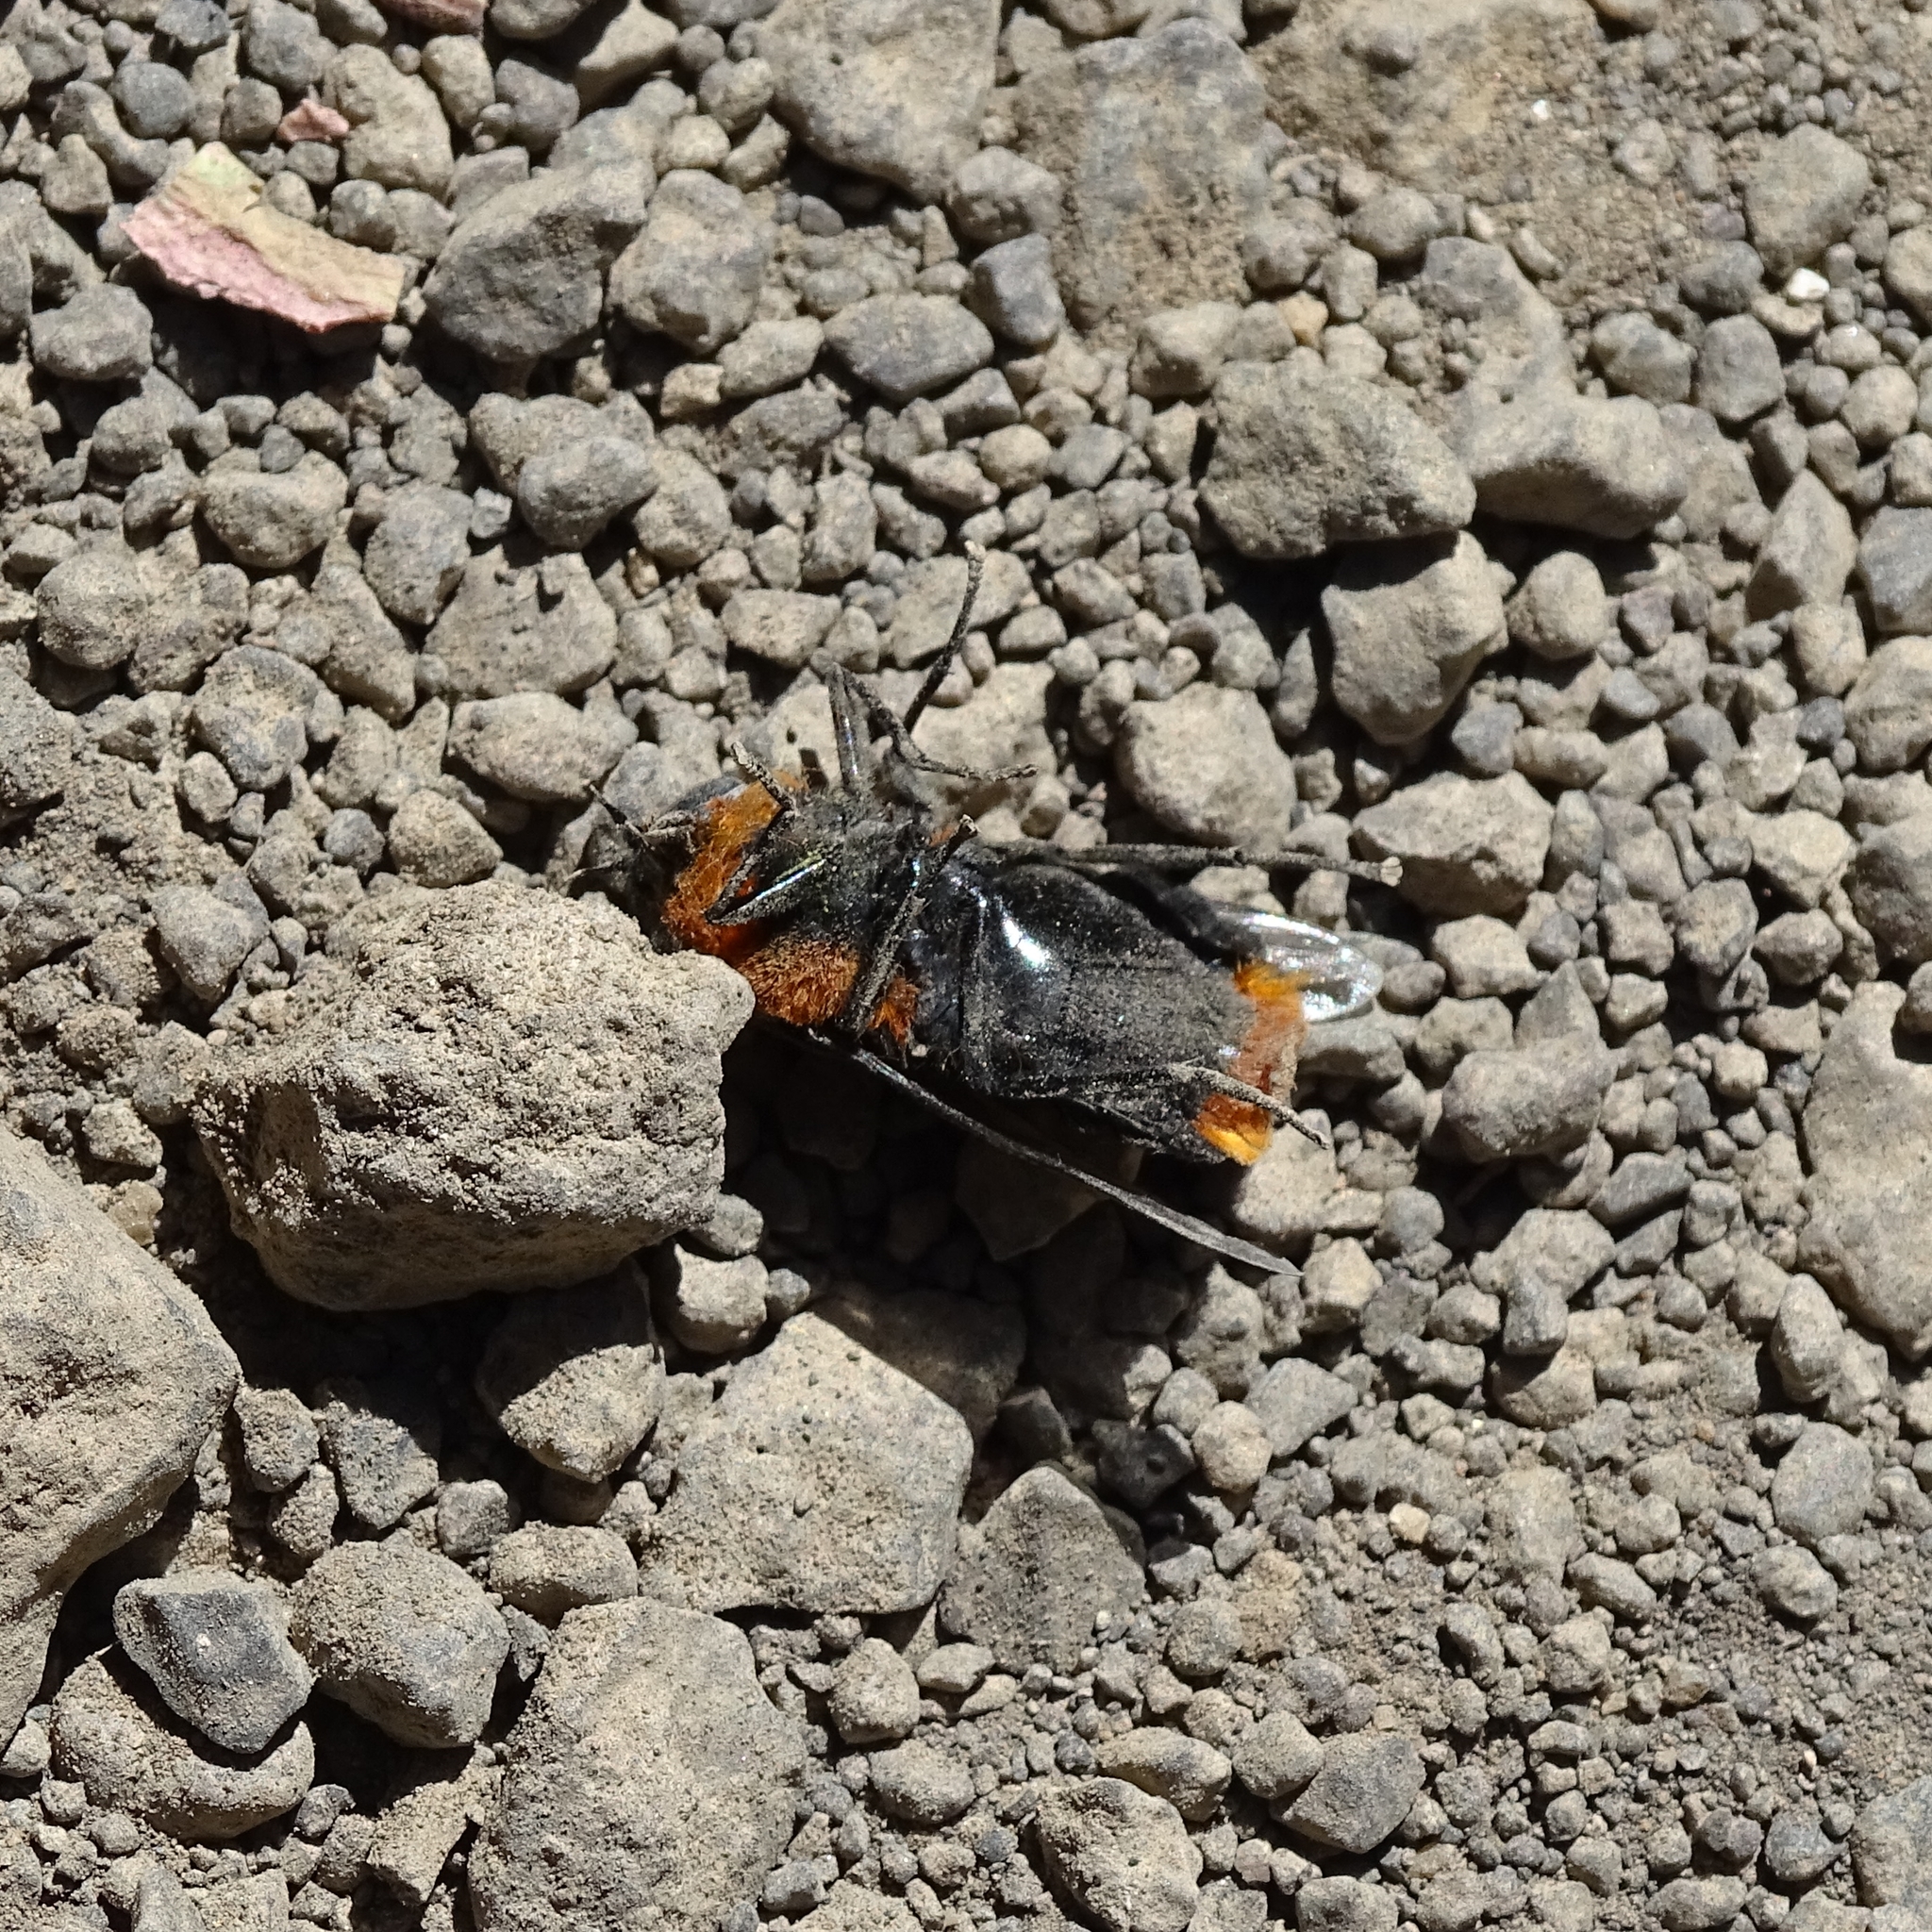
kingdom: Animalia
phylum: Arthropoda
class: Insecta
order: Diptera
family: Tabanidae
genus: Osca
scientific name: Osca lata
